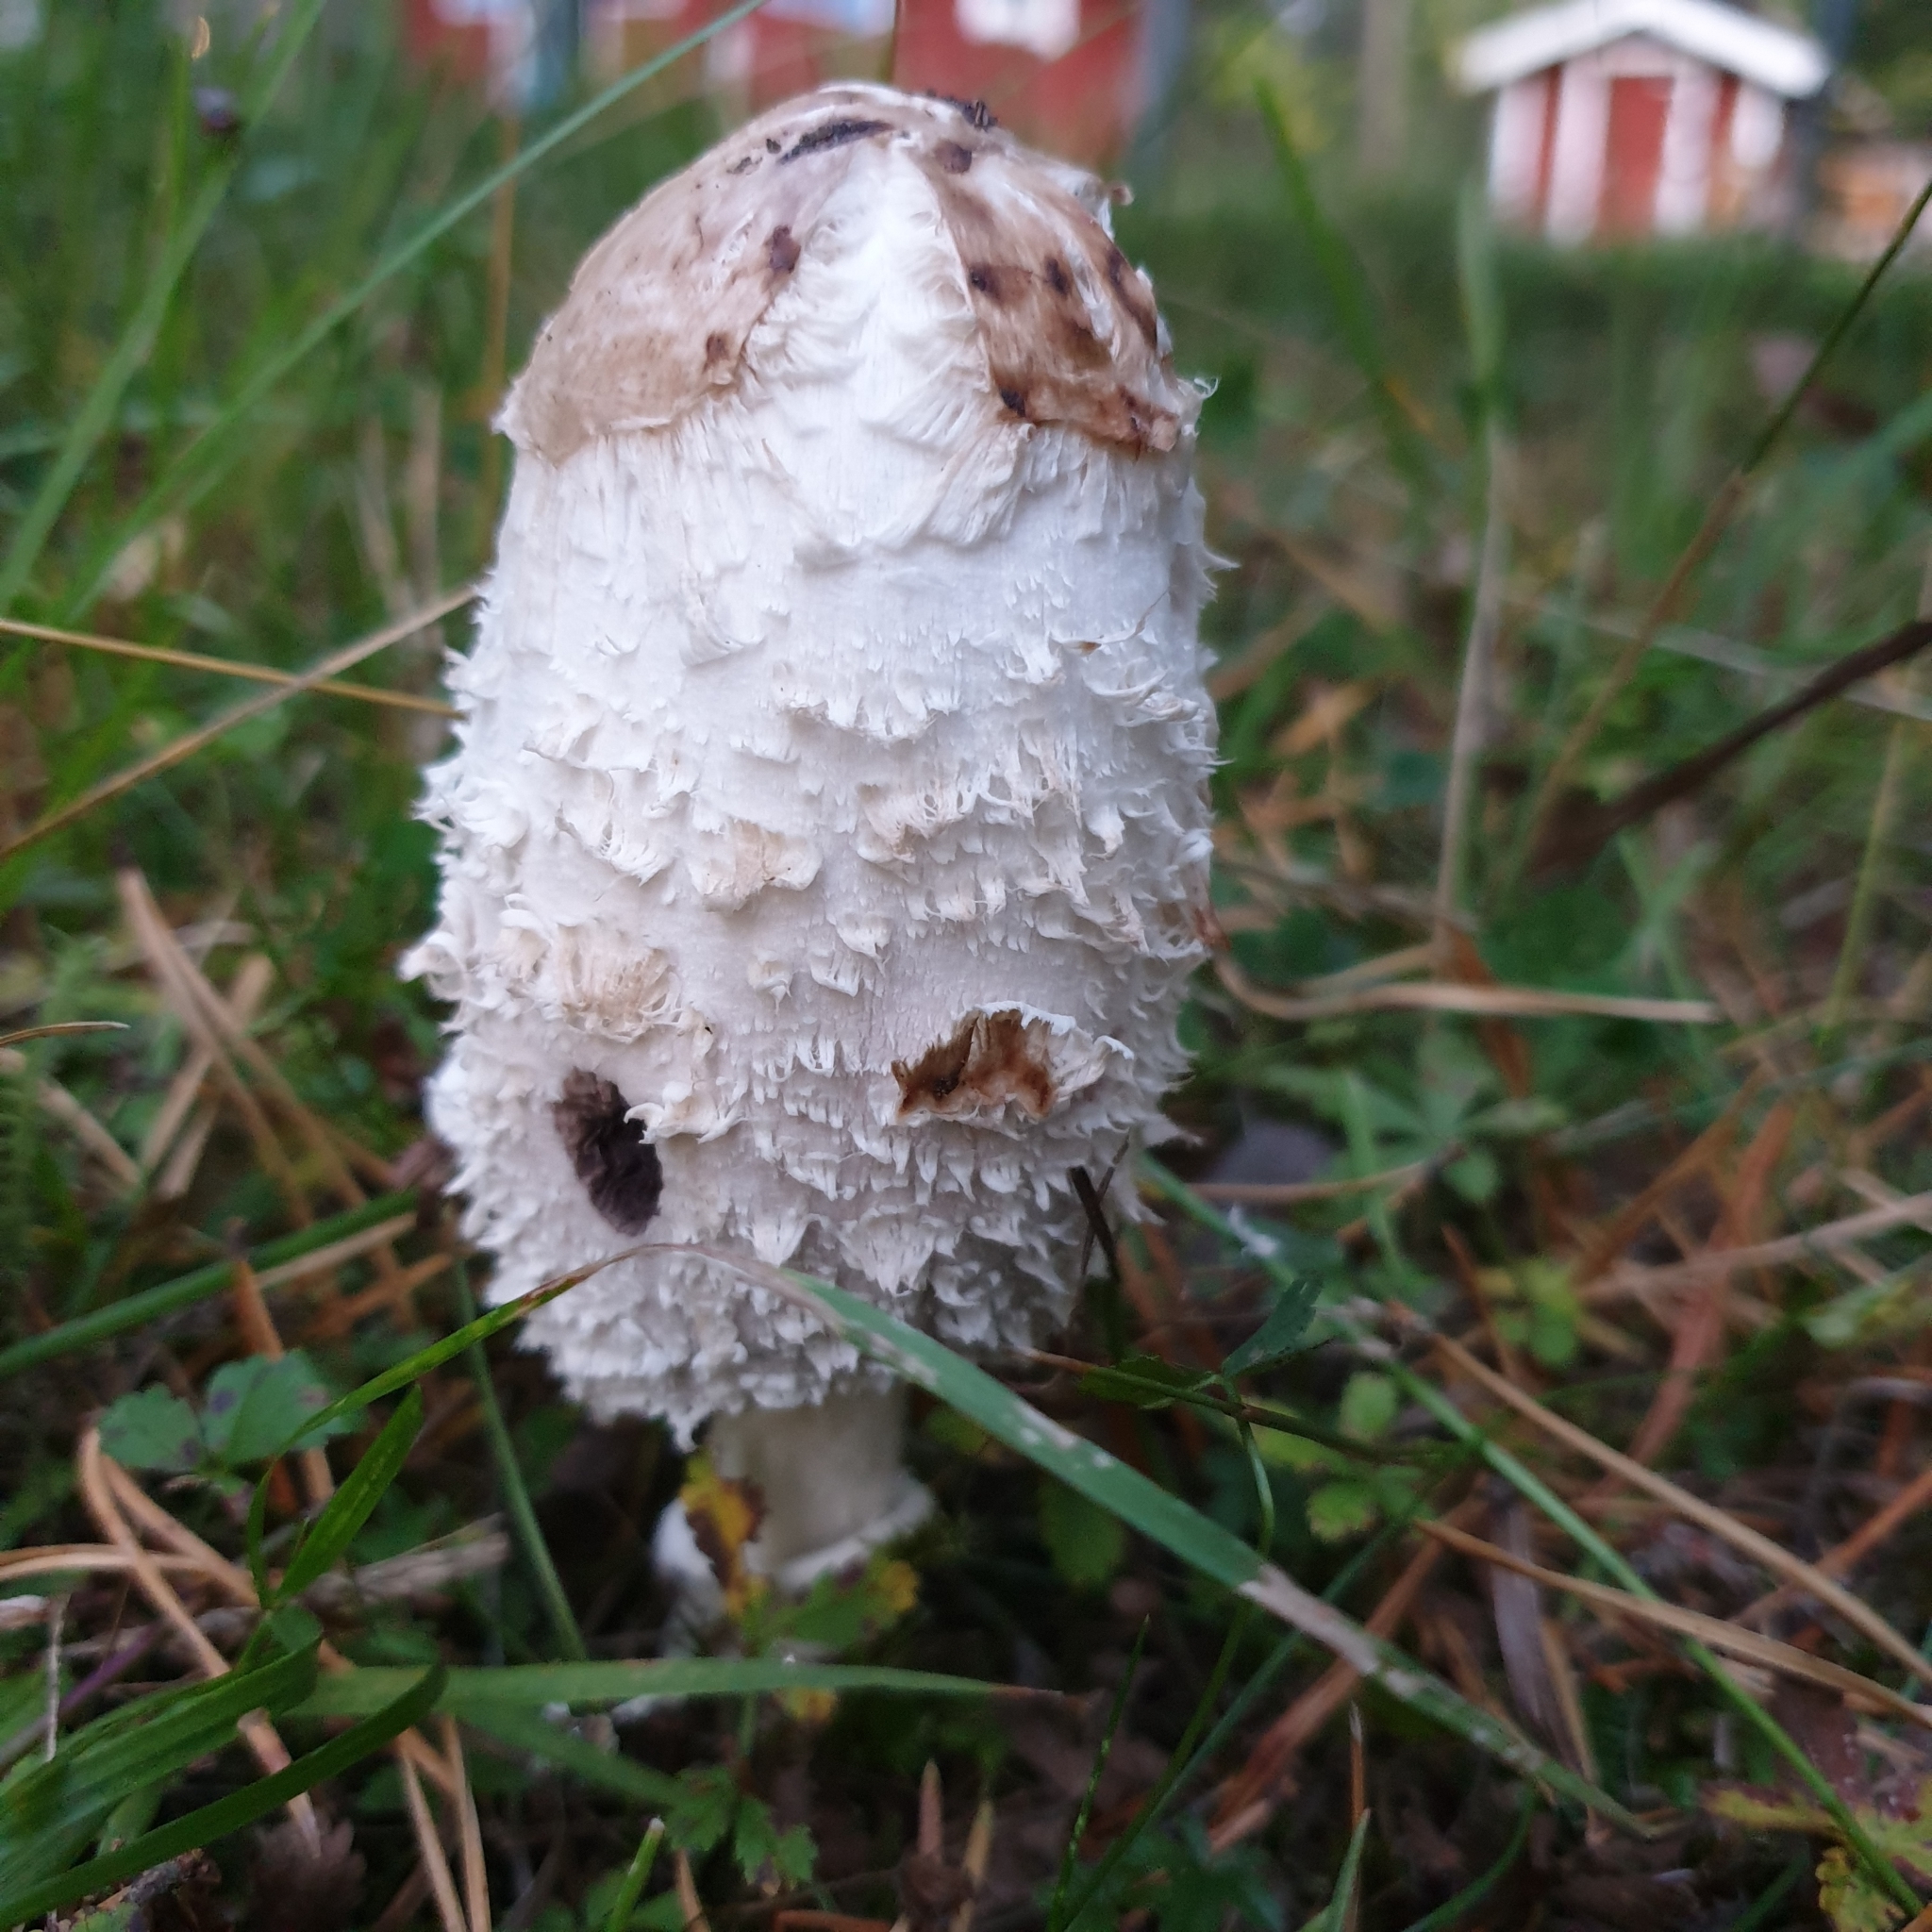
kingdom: Fungi
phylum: Basidiomycota
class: Agaricomycetes
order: Agaricales
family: Agaricaceae
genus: Coprinus
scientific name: Coprinus comatus
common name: Lawyer's wig
